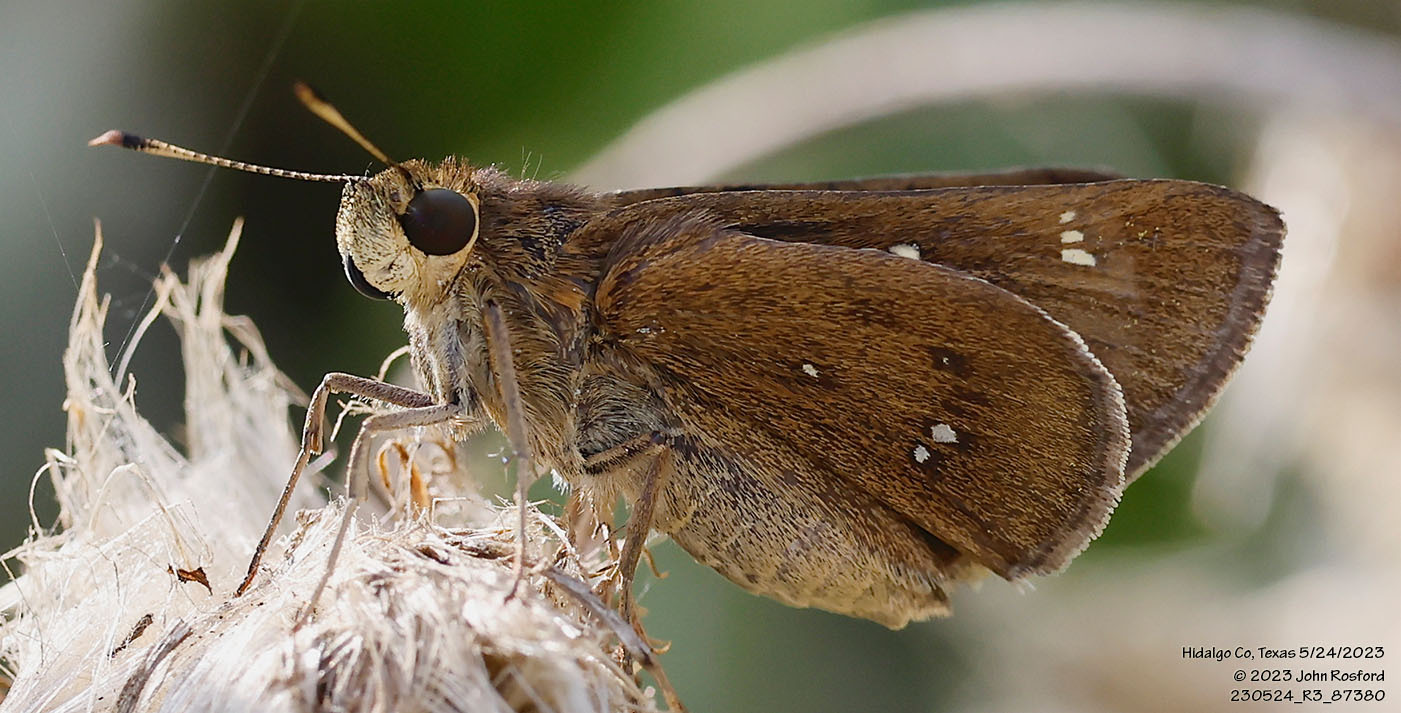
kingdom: Animalia
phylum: Arthropoda
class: Insecta
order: Lepidoptera
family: Hesperiidae
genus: Decinea
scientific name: Decinea percosius
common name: Double-dotted skipper
